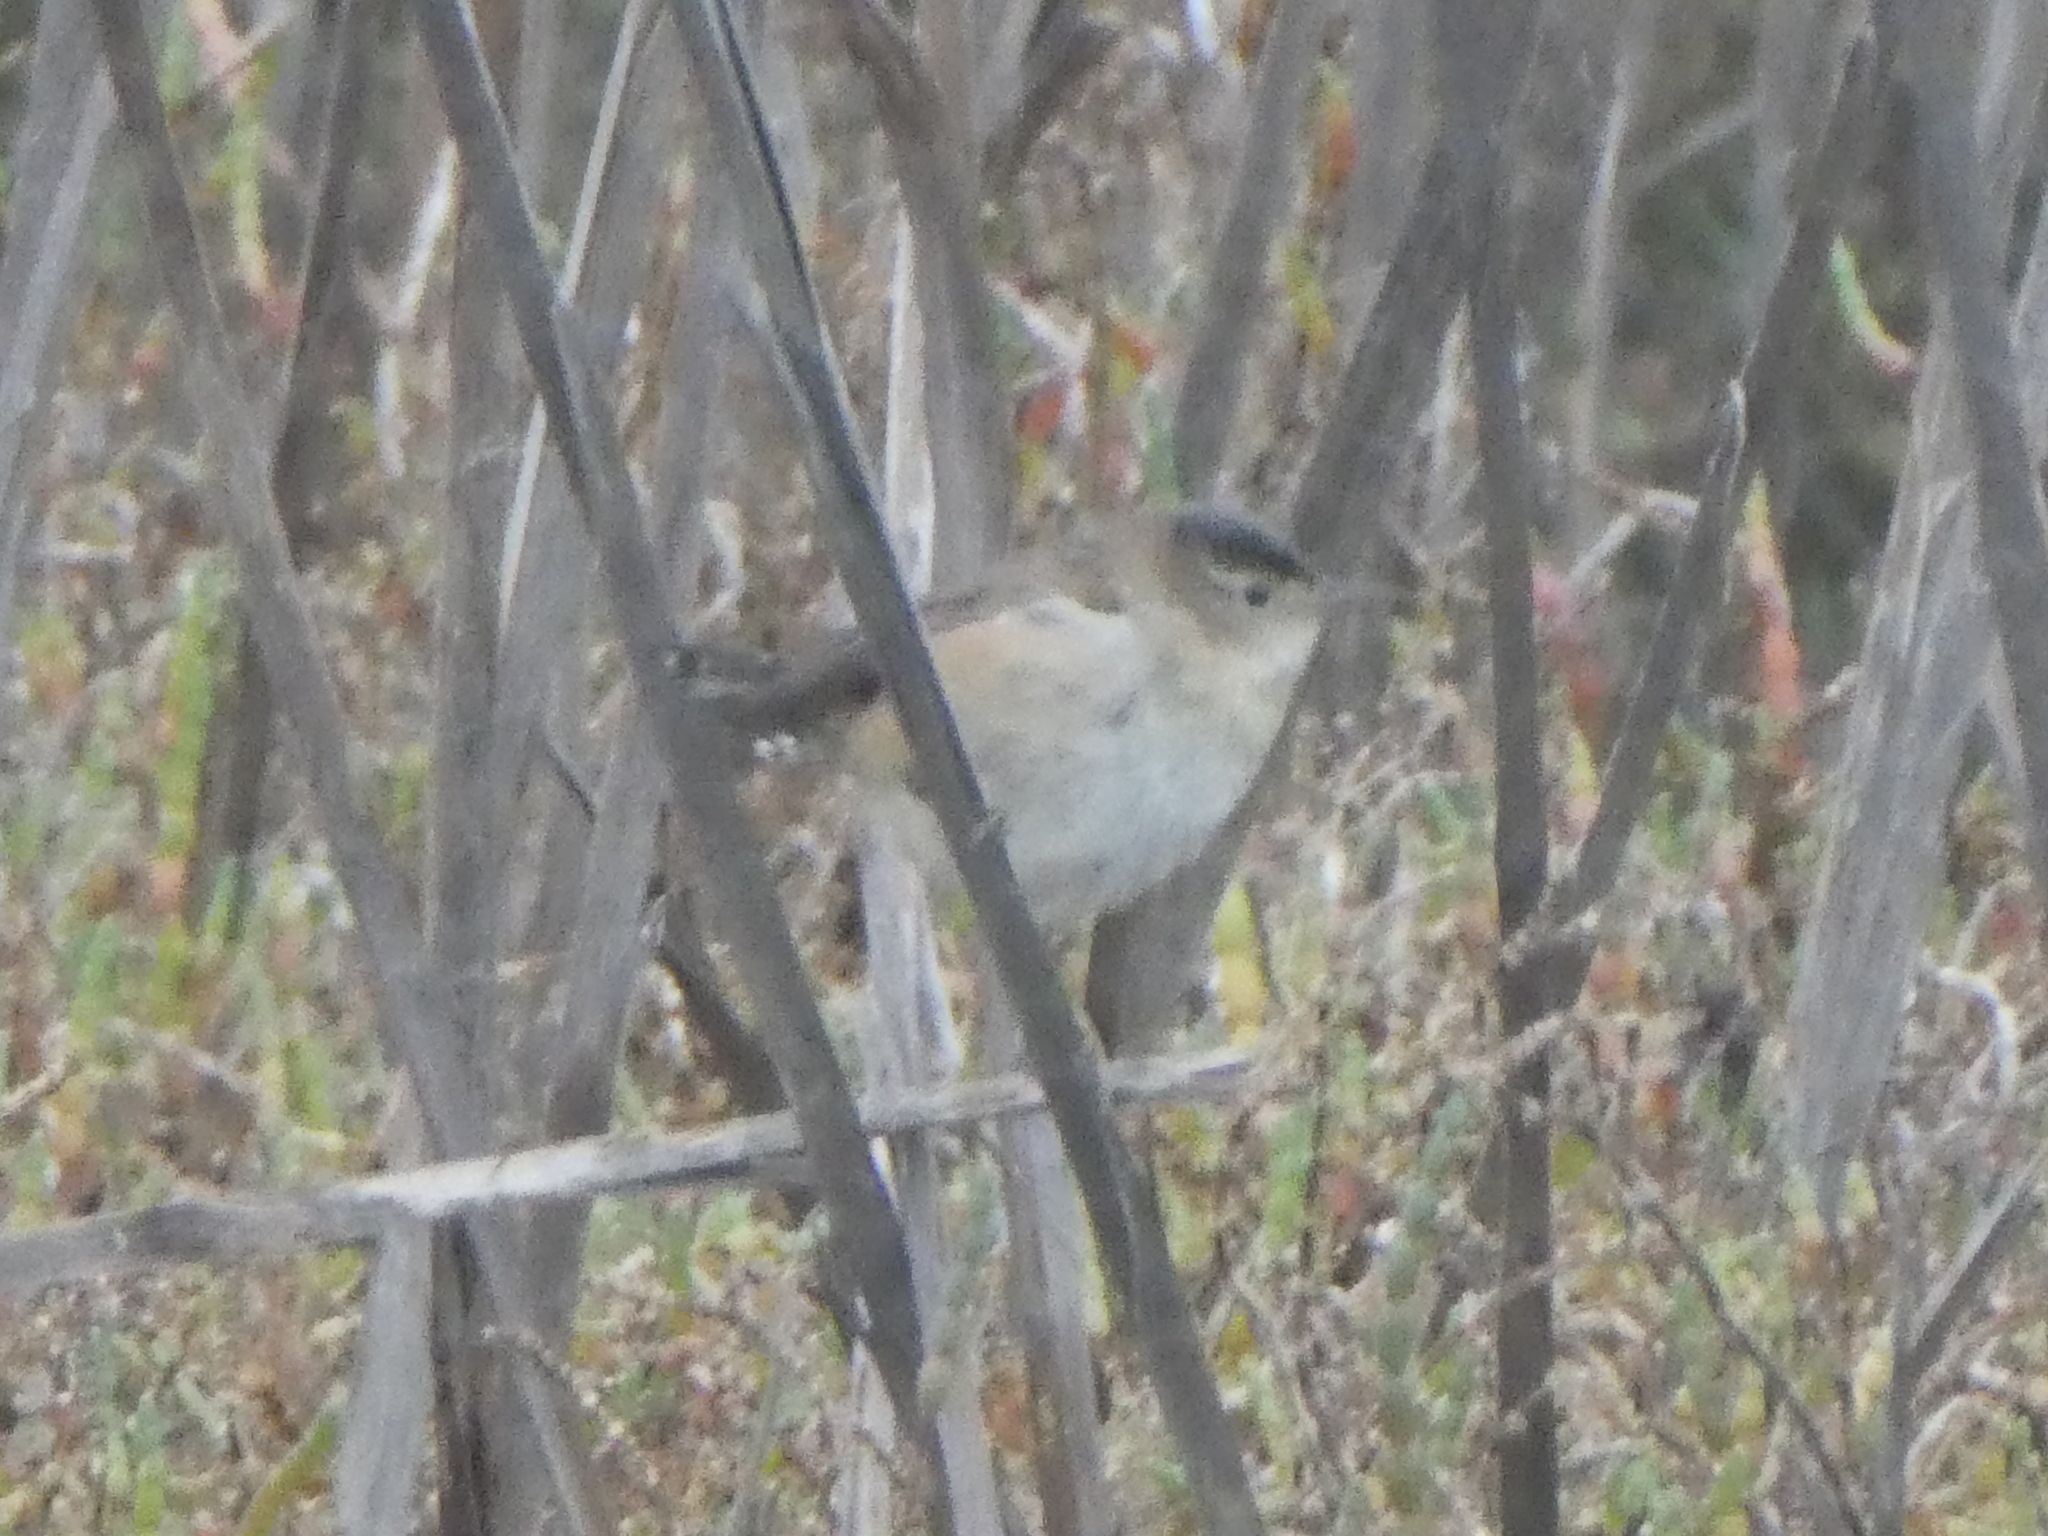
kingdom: Animalia
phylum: Chordata
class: Aves
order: Passeriformes
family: Troglodytidae
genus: Cistothorus
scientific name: Cistothorus palustris
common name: Marsh wren
